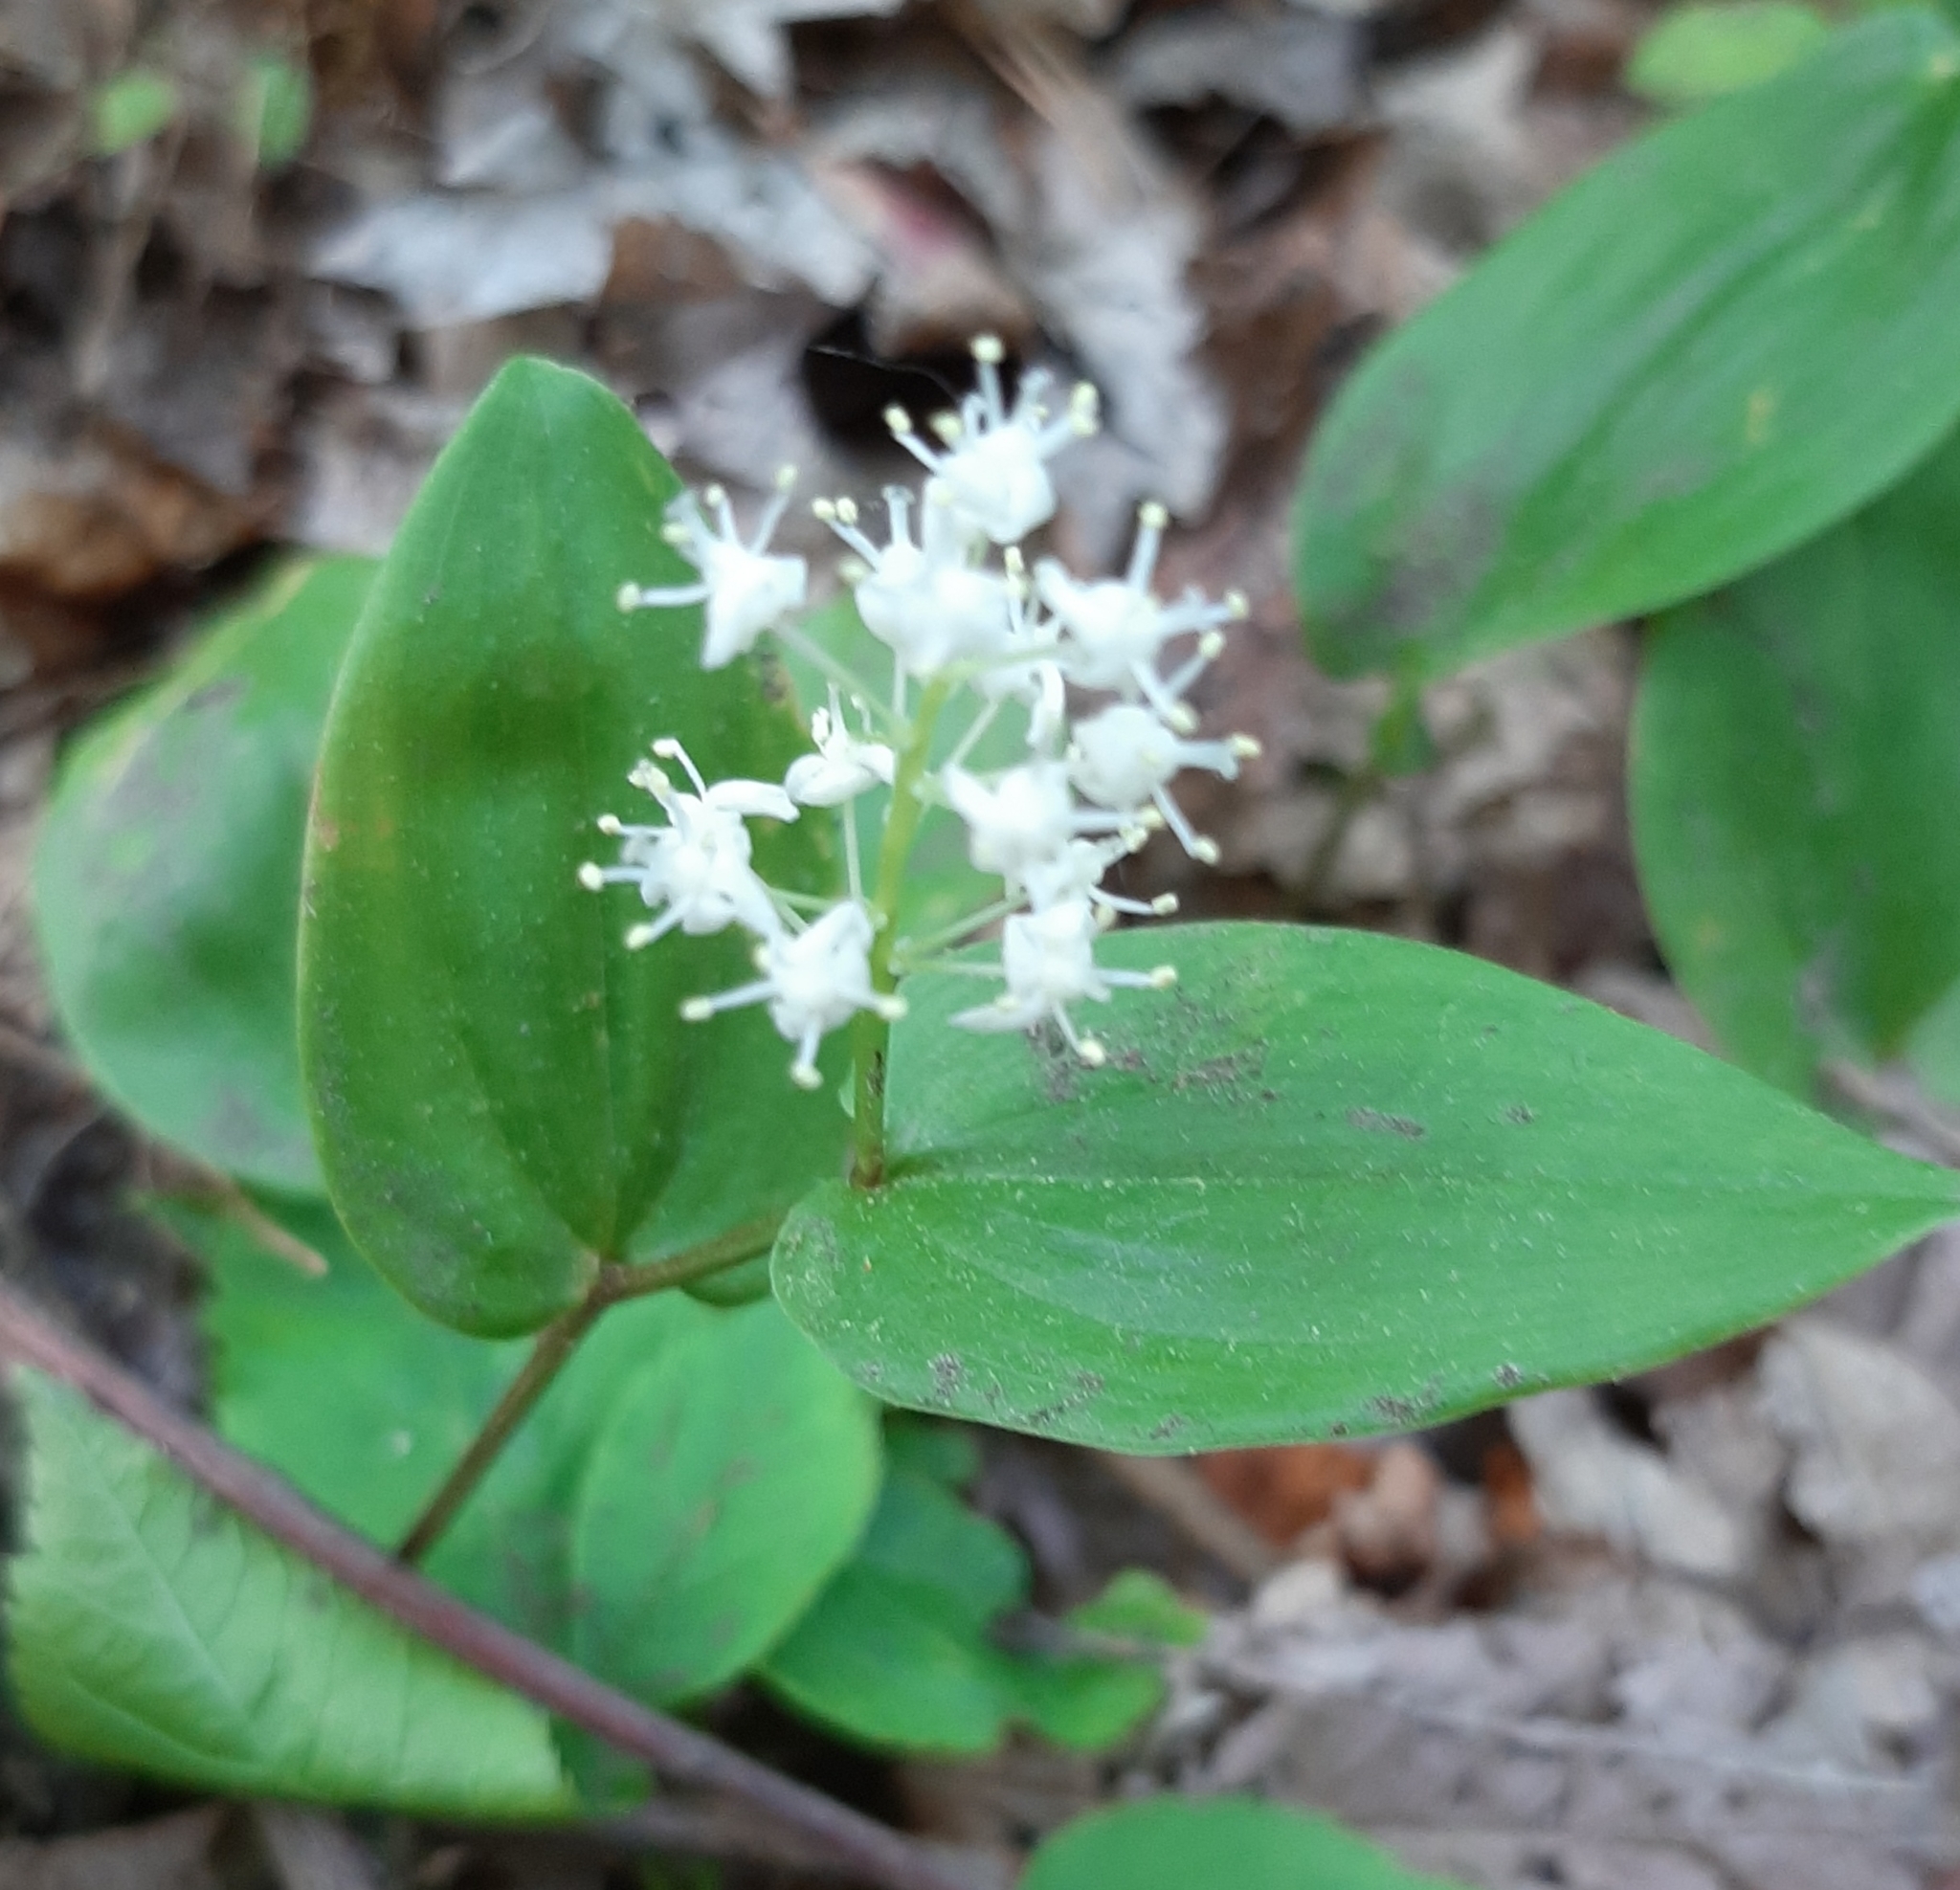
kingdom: Plantae
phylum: Tracheophyta
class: Liliopsida
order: Asparagales
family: Asparagaceae
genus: Maianthemum
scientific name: Maianthemum canadense
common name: False lily-of-the-valley
